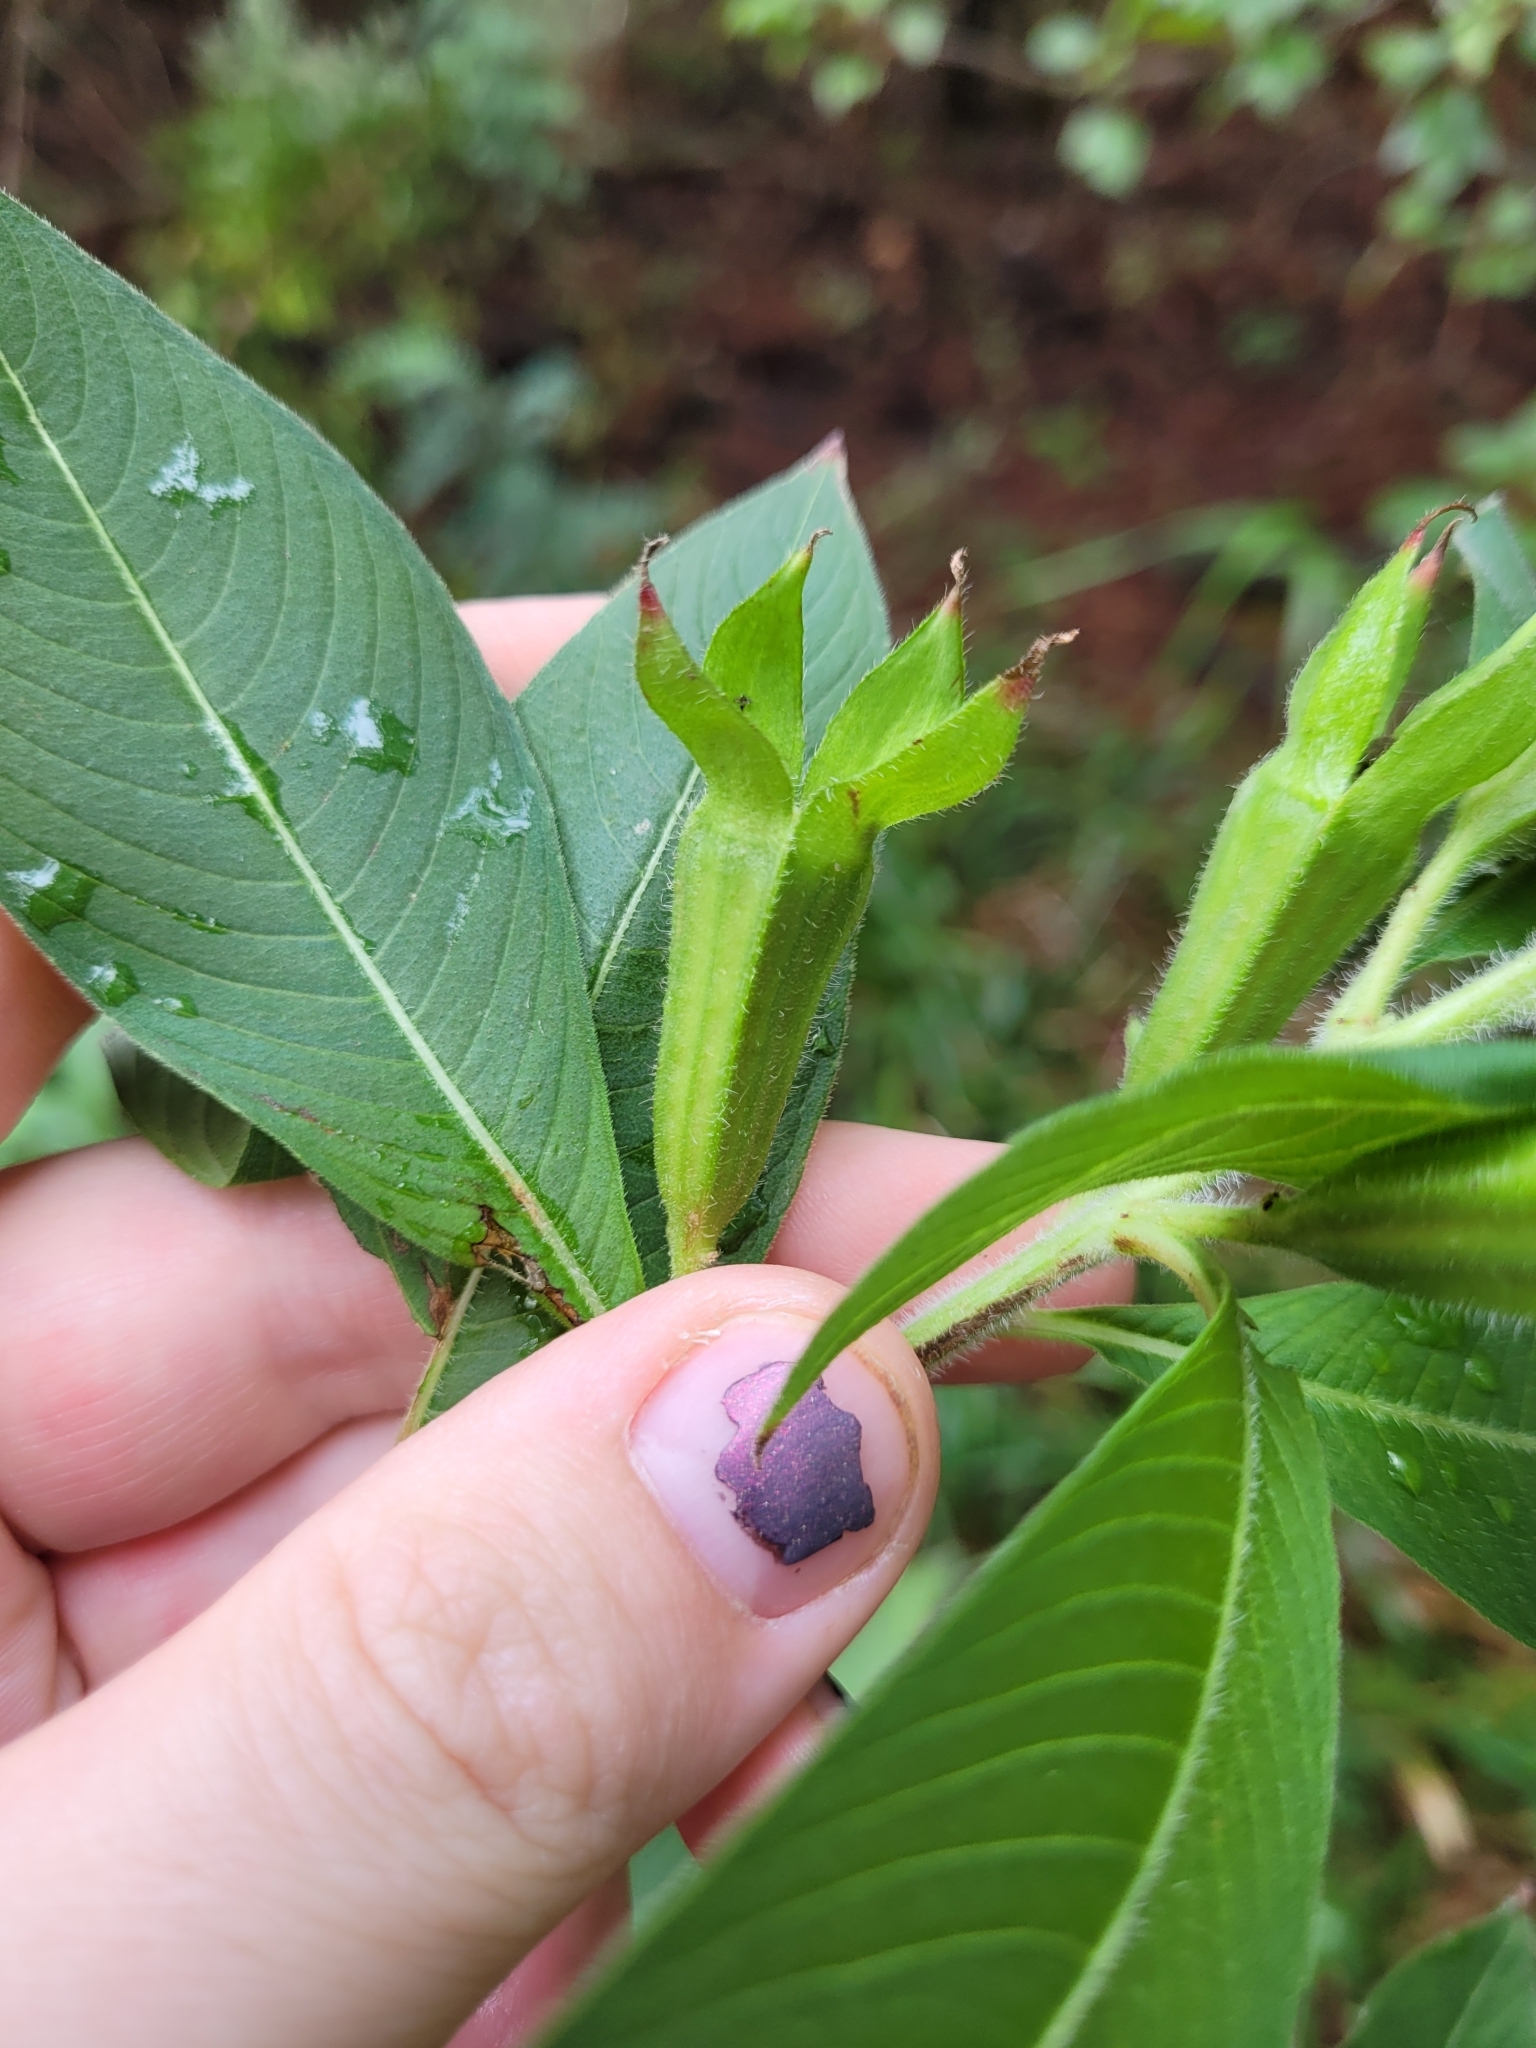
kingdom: Plantae
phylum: Tracheophyta
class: Magnoliopsida
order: Myrtales
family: Onagraceae
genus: Ludwigia
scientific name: Ludwigia peruviana
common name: Peruvian primrose-willow
